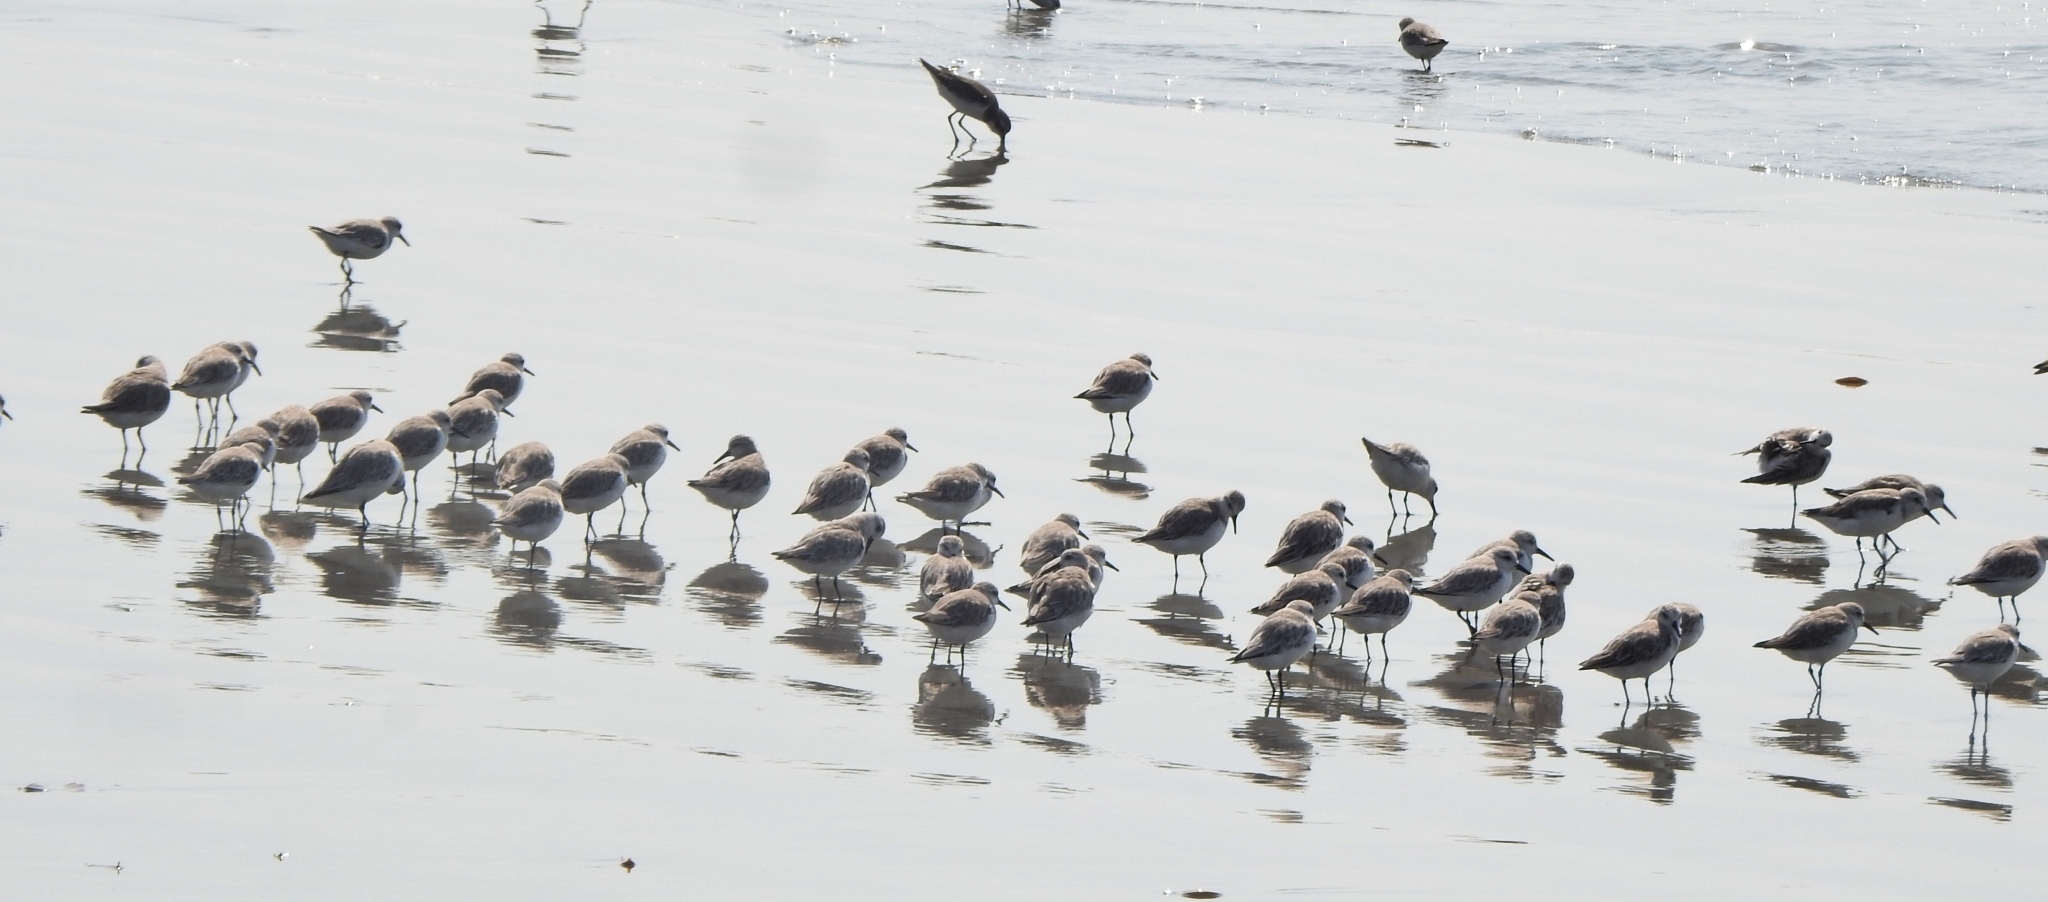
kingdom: Animalia
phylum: Chordata
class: Aves
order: Charadriiformes
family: Scolopacidae
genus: Calidris
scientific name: Calidris alba
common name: Sanderling
